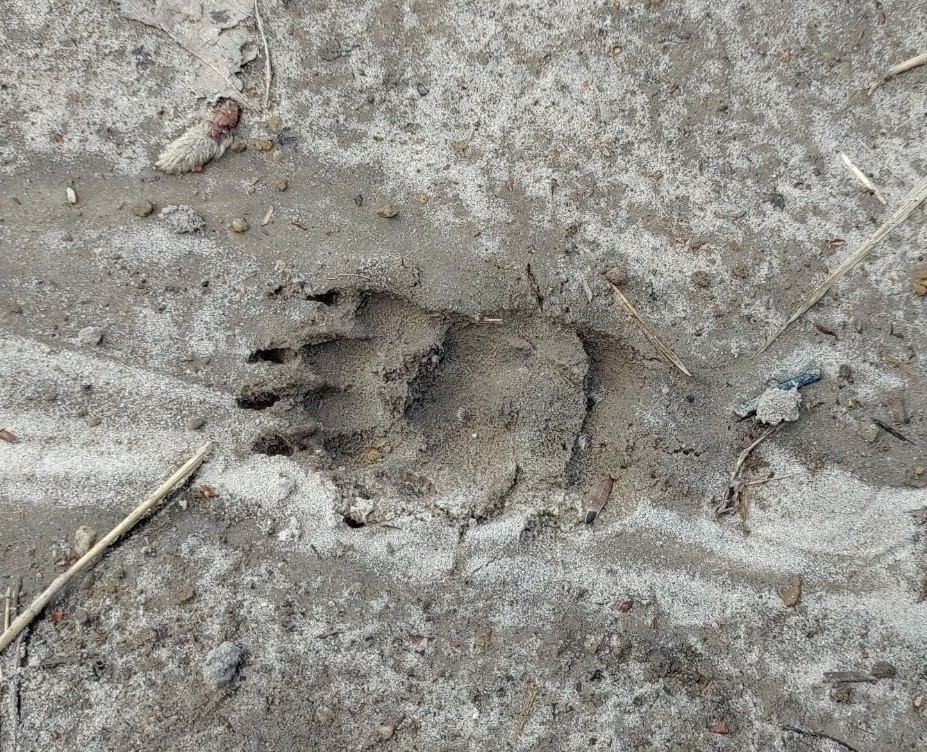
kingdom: Animalia
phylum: Chordata
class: Mammalia
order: Carnivora
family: Mustelidae
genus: Meles
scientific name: Meles meles
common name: Eurasian badger
